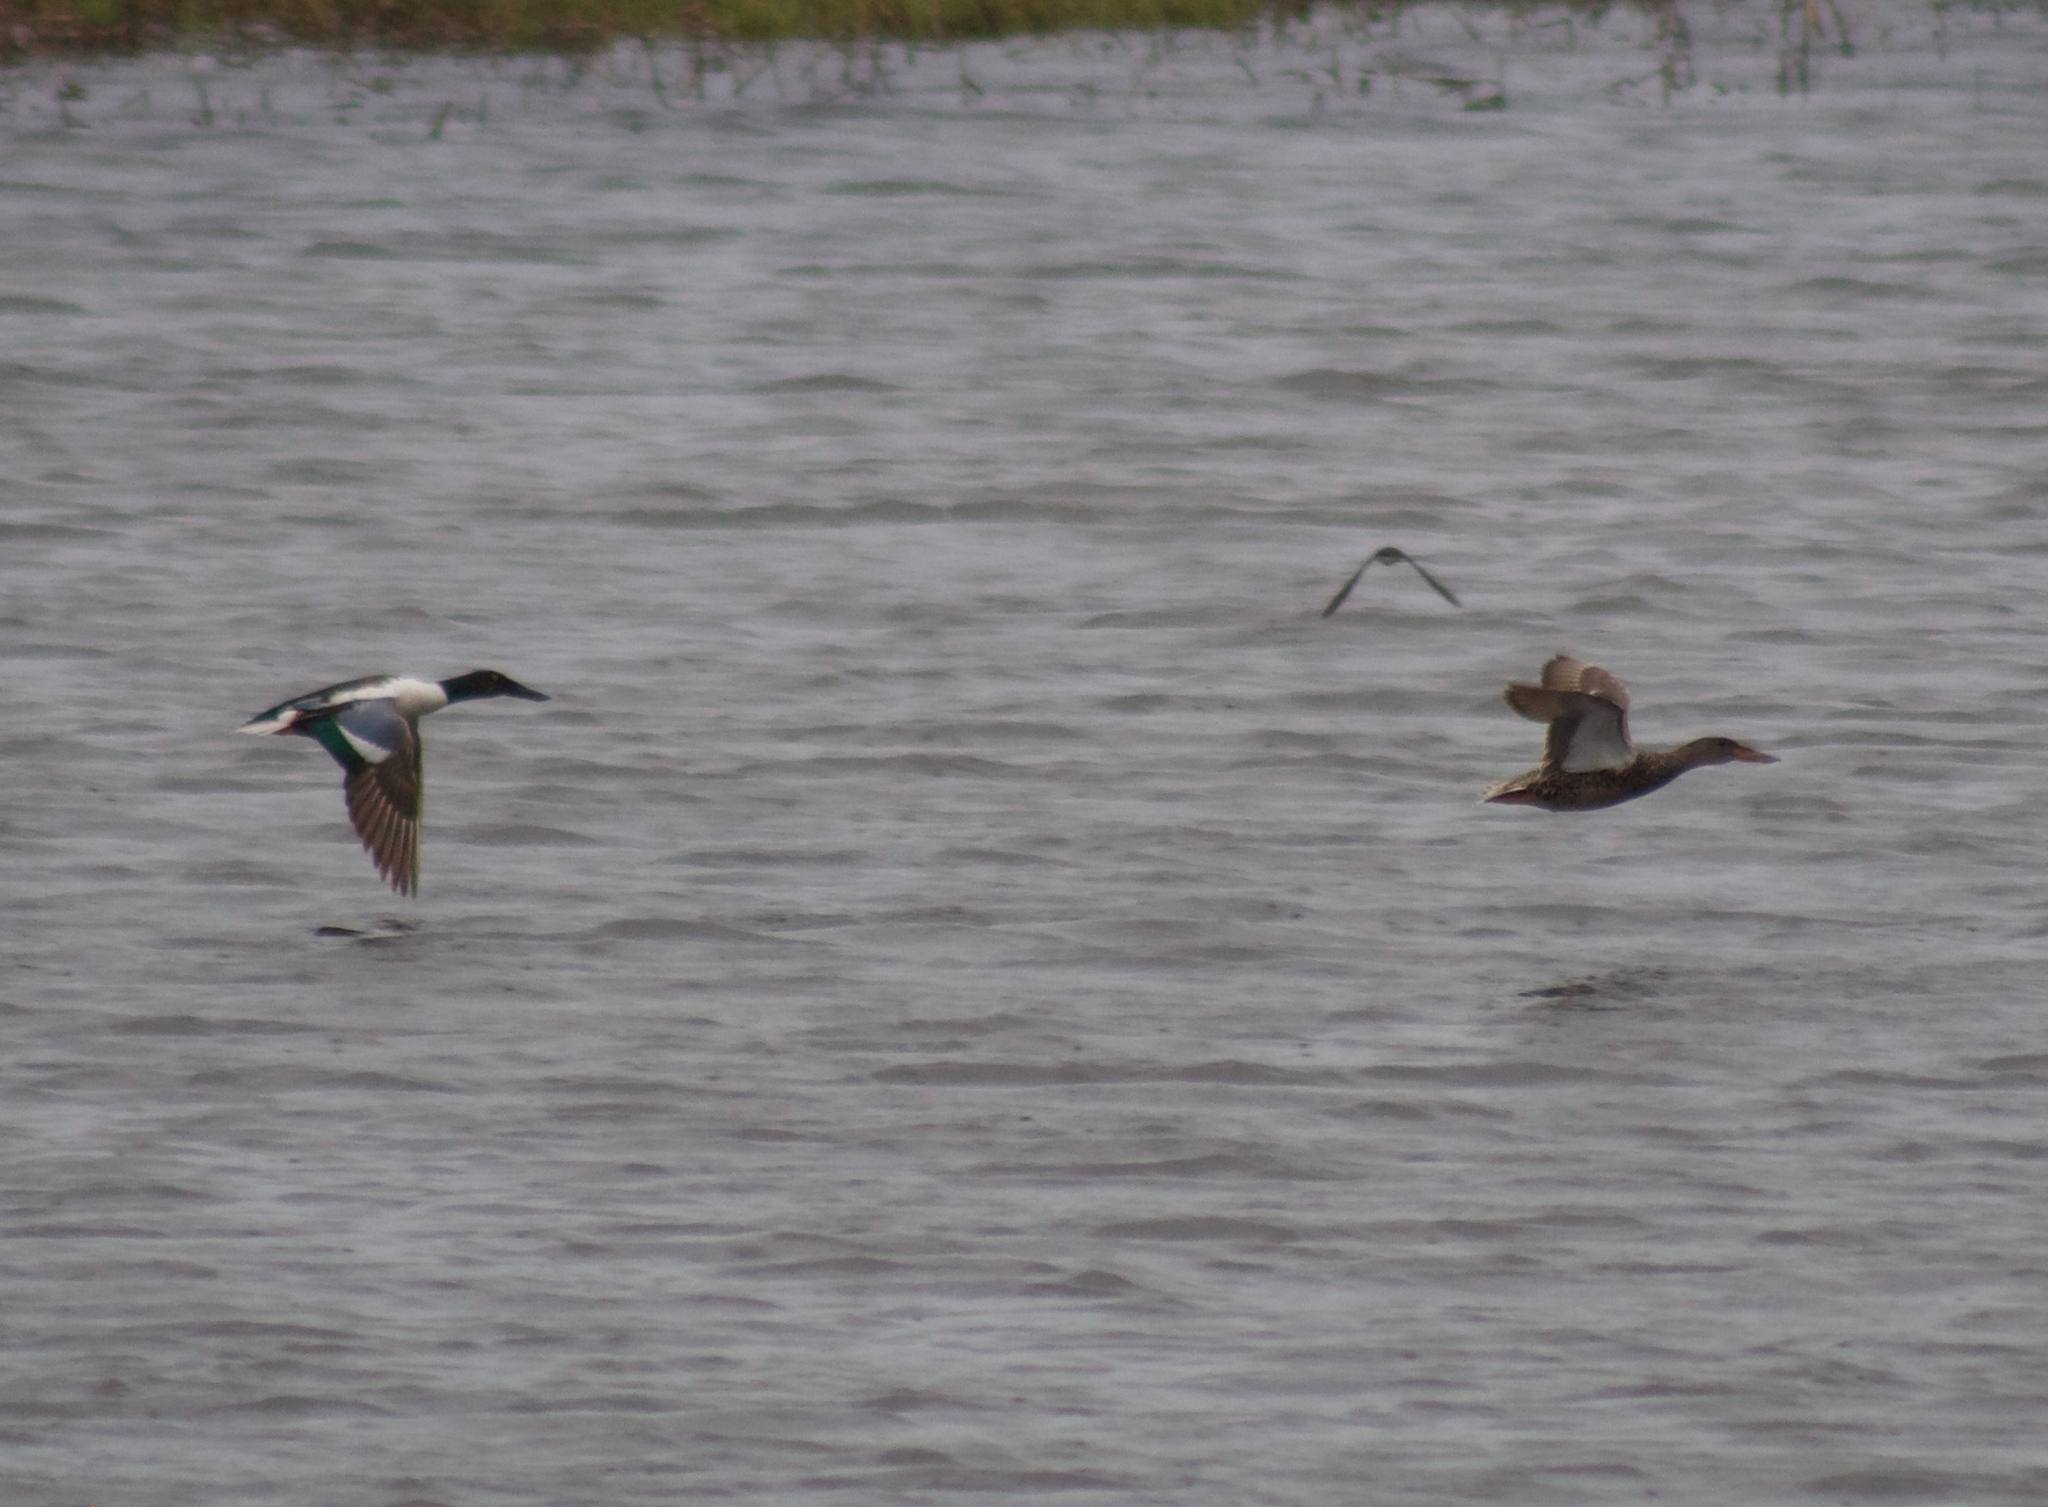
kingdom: Animalia
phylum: Chordata
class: Aves
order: Anseriformes
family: Anatidae
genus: Spatula
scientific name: Spatula clypeata
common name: Northern shoveler
